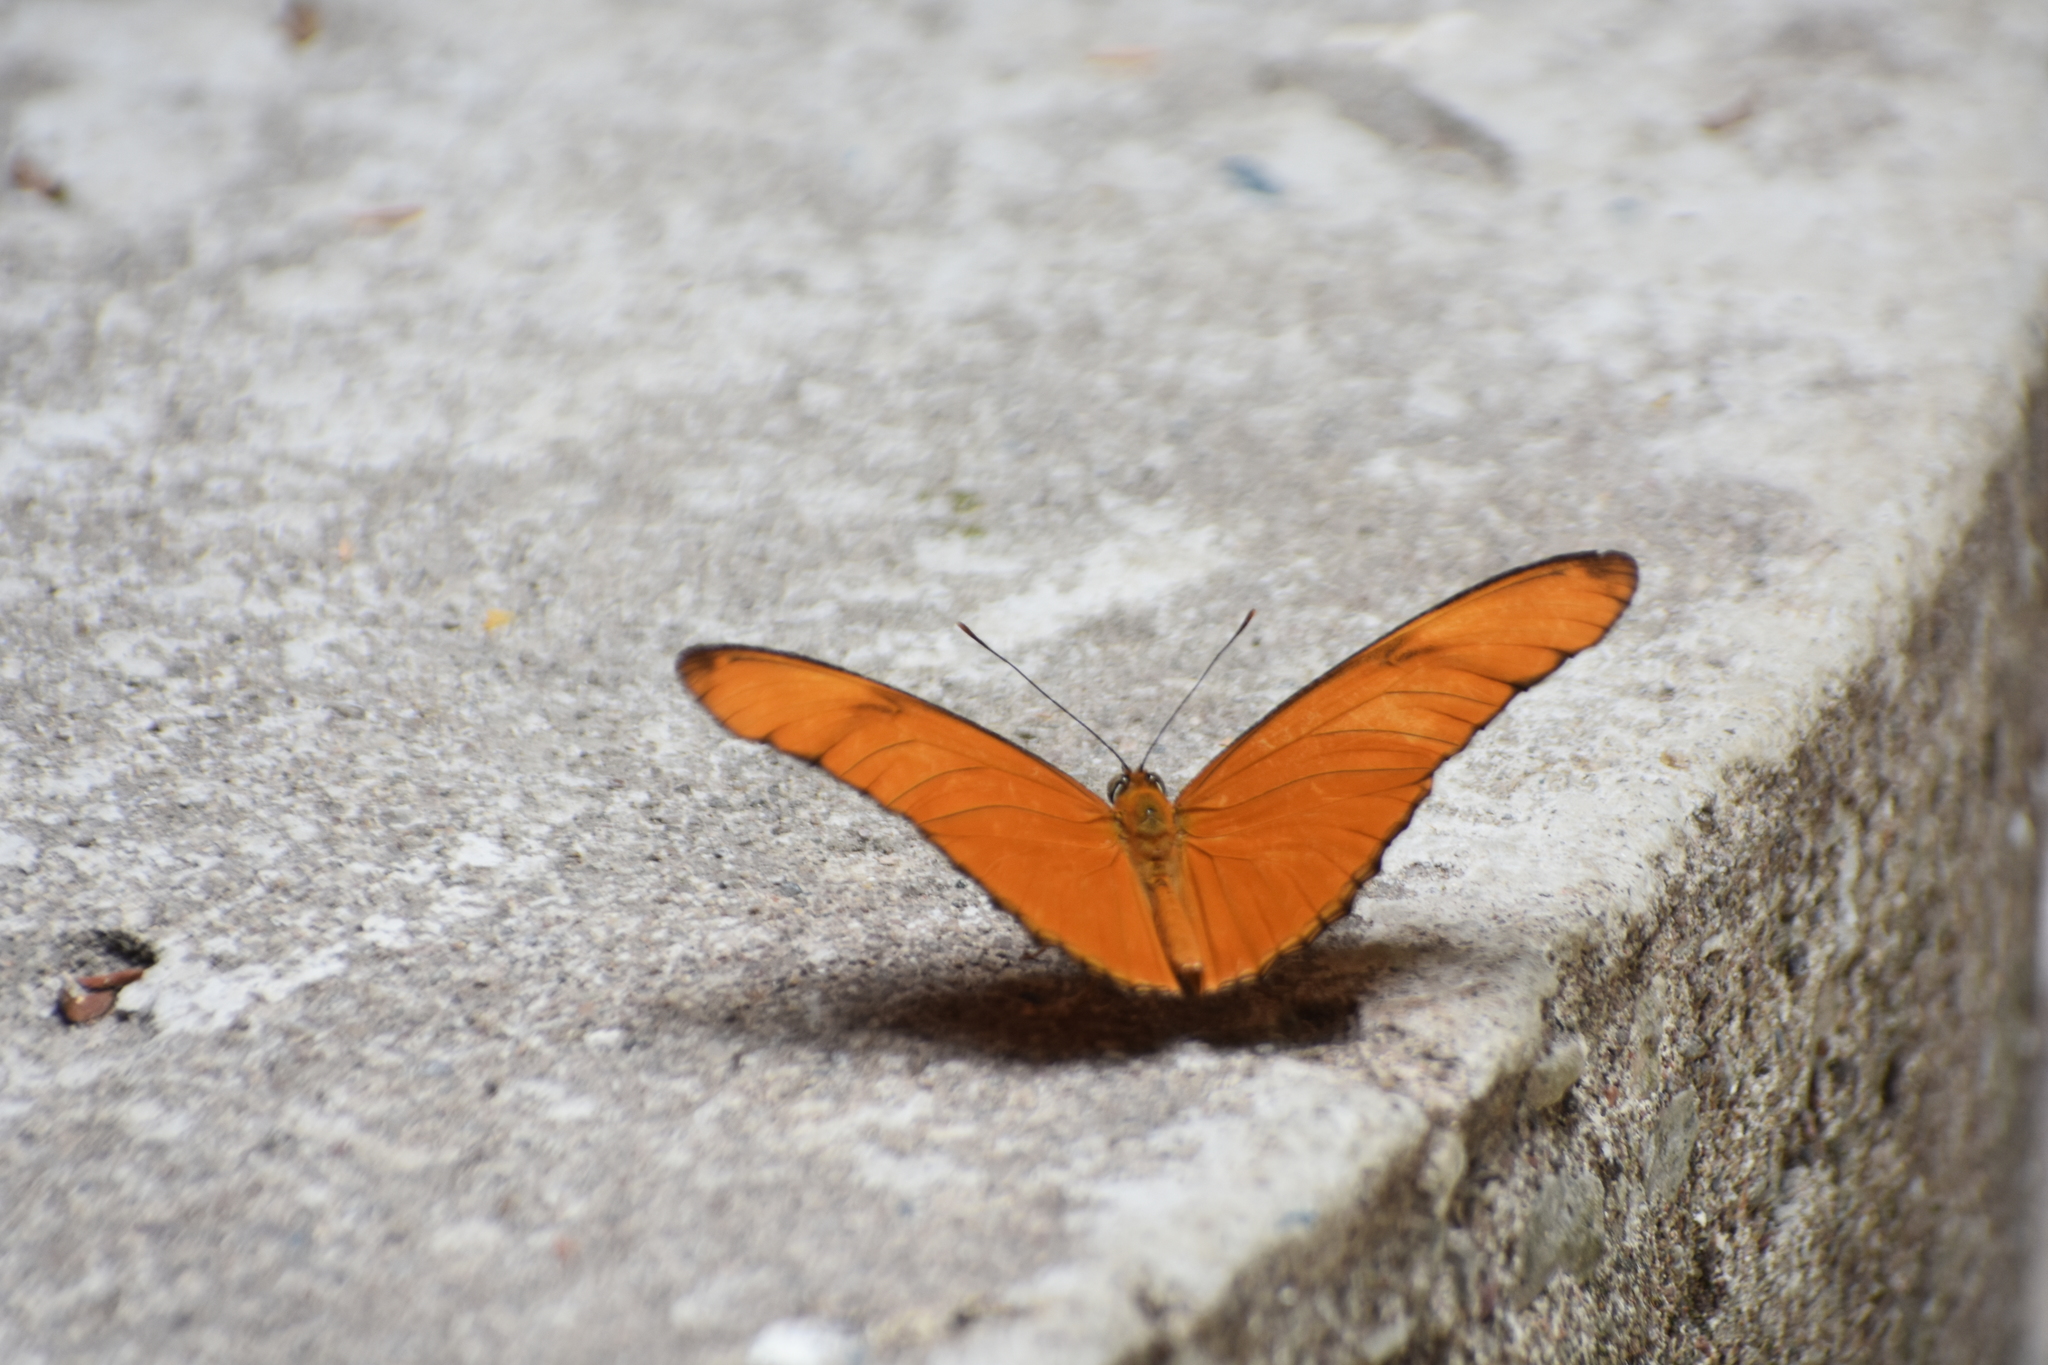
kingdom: Animalia
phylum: Arthropoda
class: Insecta
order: Lepidoptera
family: Nymphalidae
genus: Dryas
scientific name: Dryas iulia
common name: Flambeau
